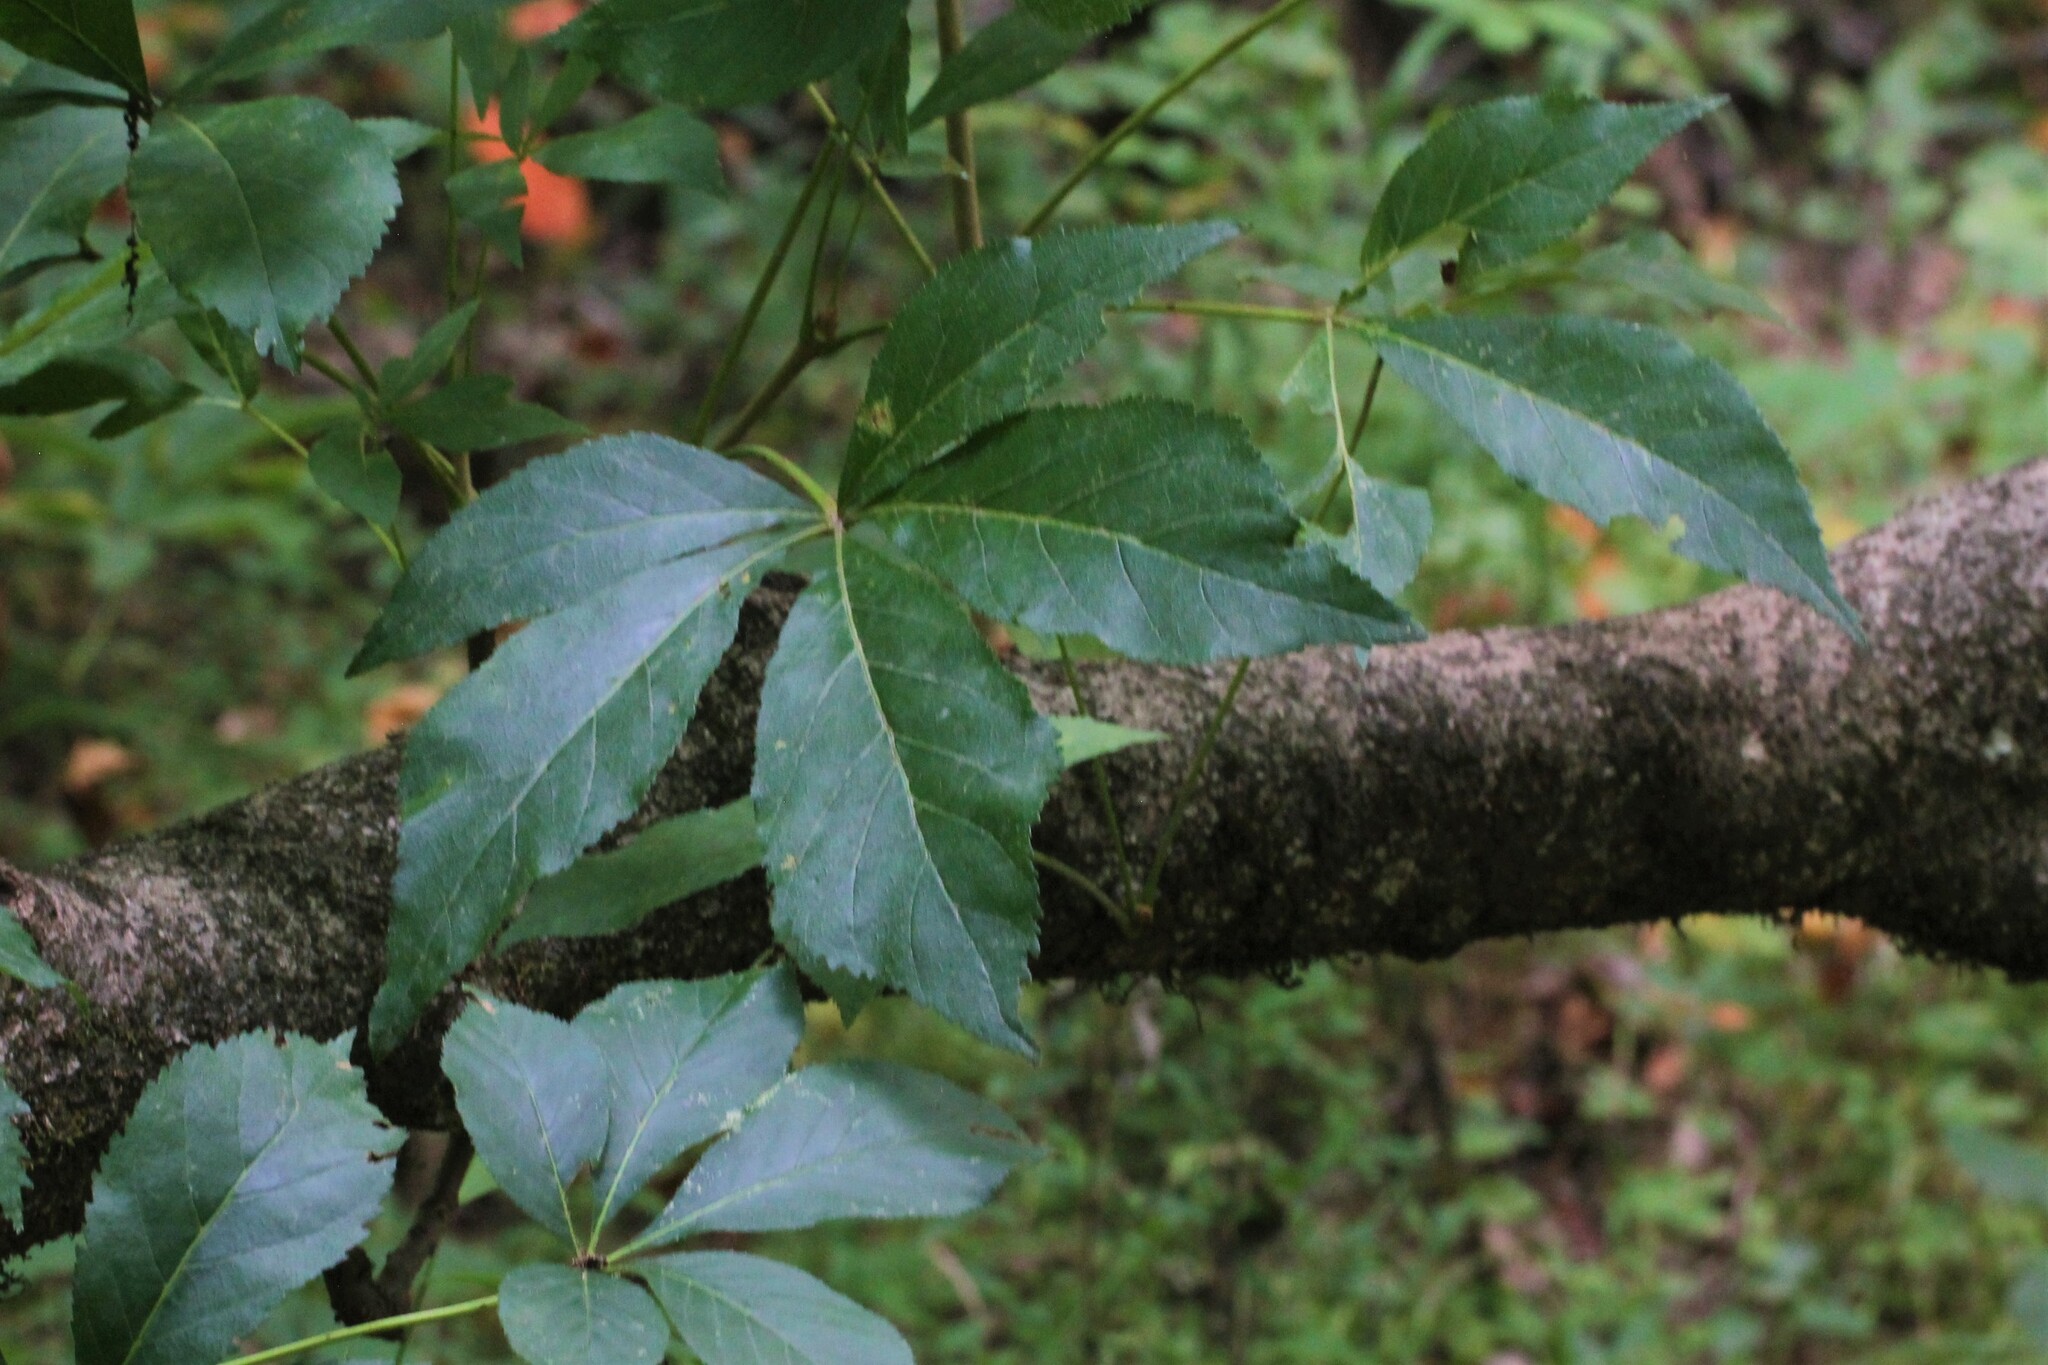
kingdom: Plantae
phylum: Tracheophyta
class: Magnoliopsida
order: Vitales
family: Vitaceae
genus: Parthenocissus
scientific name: Parthenocissus quinquefolia
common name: Virginia-creeper
